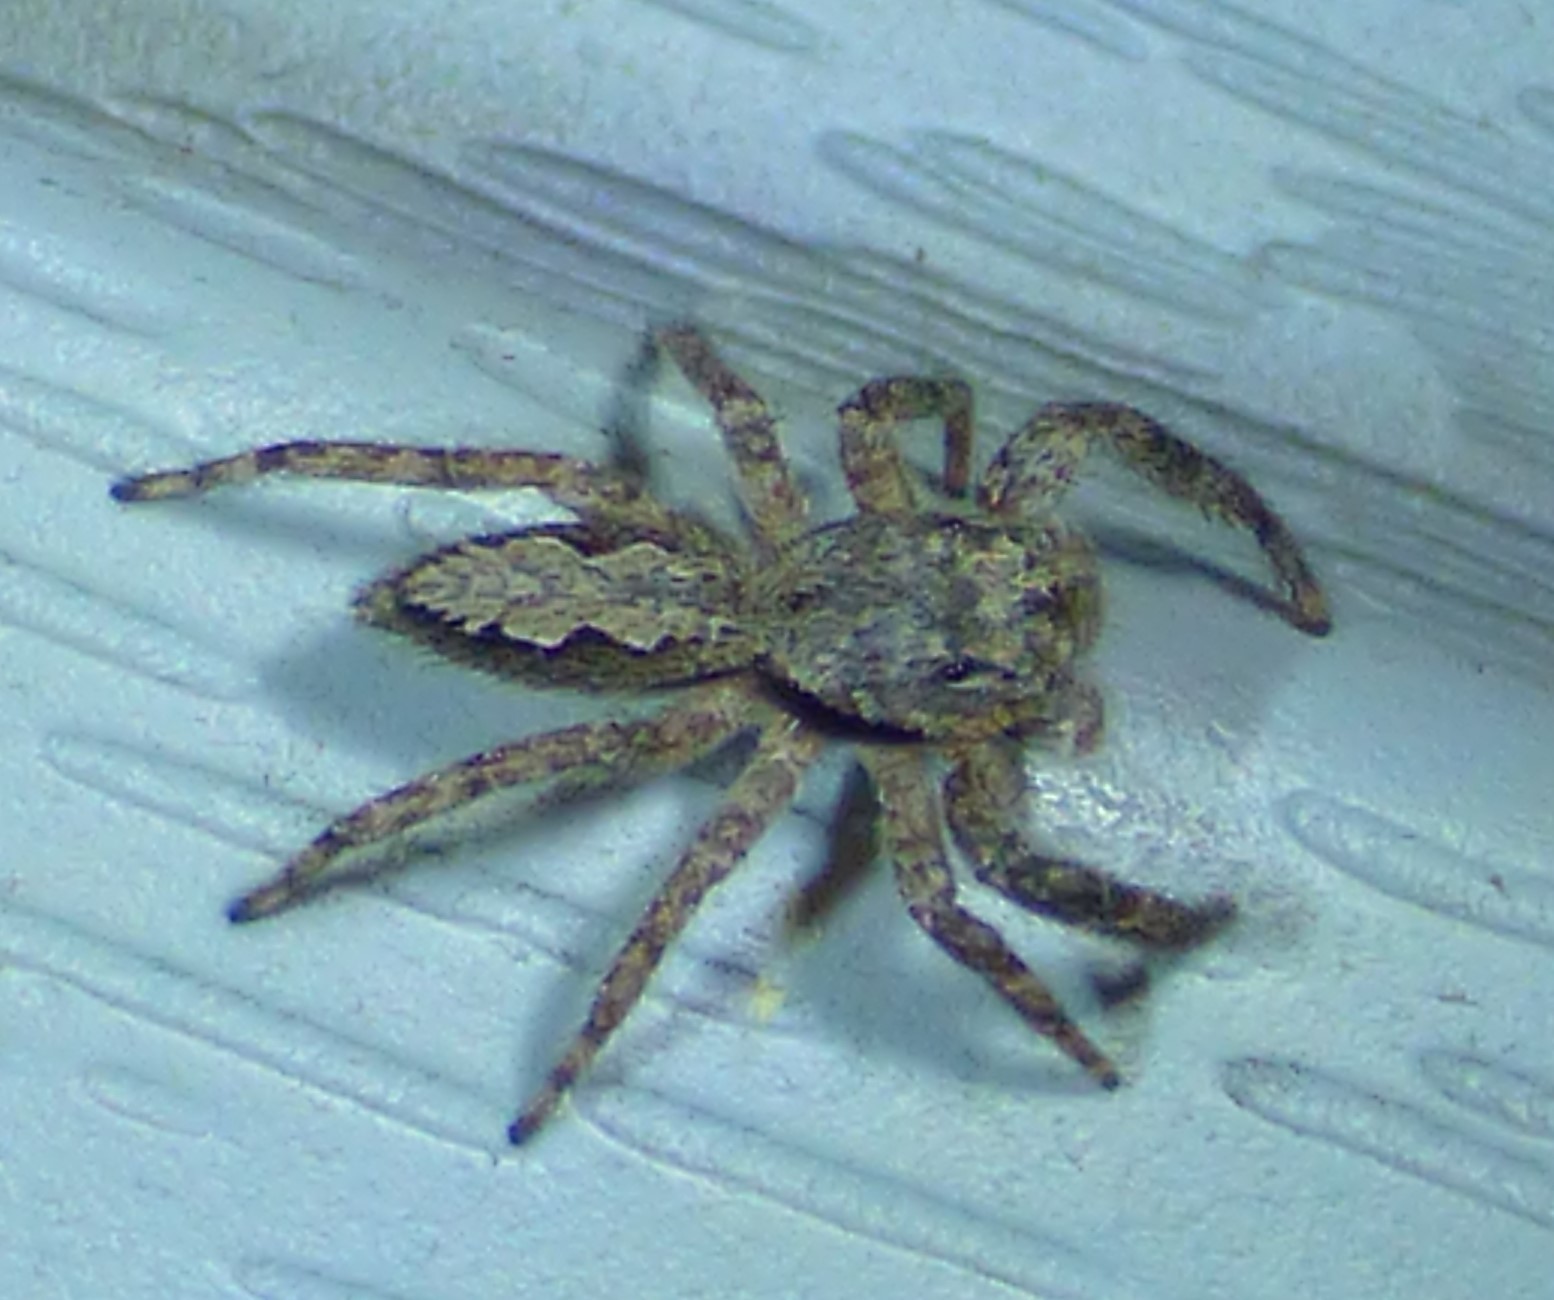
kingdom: Animalia
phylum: Arthropoda
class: Arachnida
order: Araneae
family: Salticidae
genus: Platycryptus
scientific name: Platycryptus undatus
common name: Tan jumping spider
